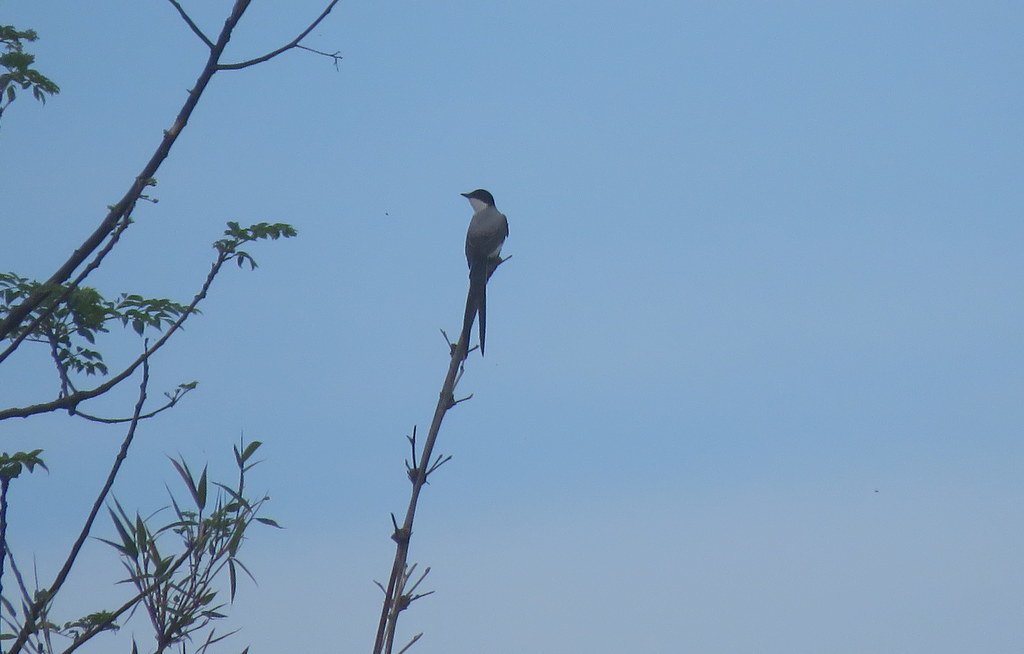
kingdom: Animalia
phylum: Chordata
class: Aves
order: Passeriformes
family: Tyrannidae
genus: Tyrannus
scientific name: Tyrannus savana
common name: Fork-tailed flycatcher
